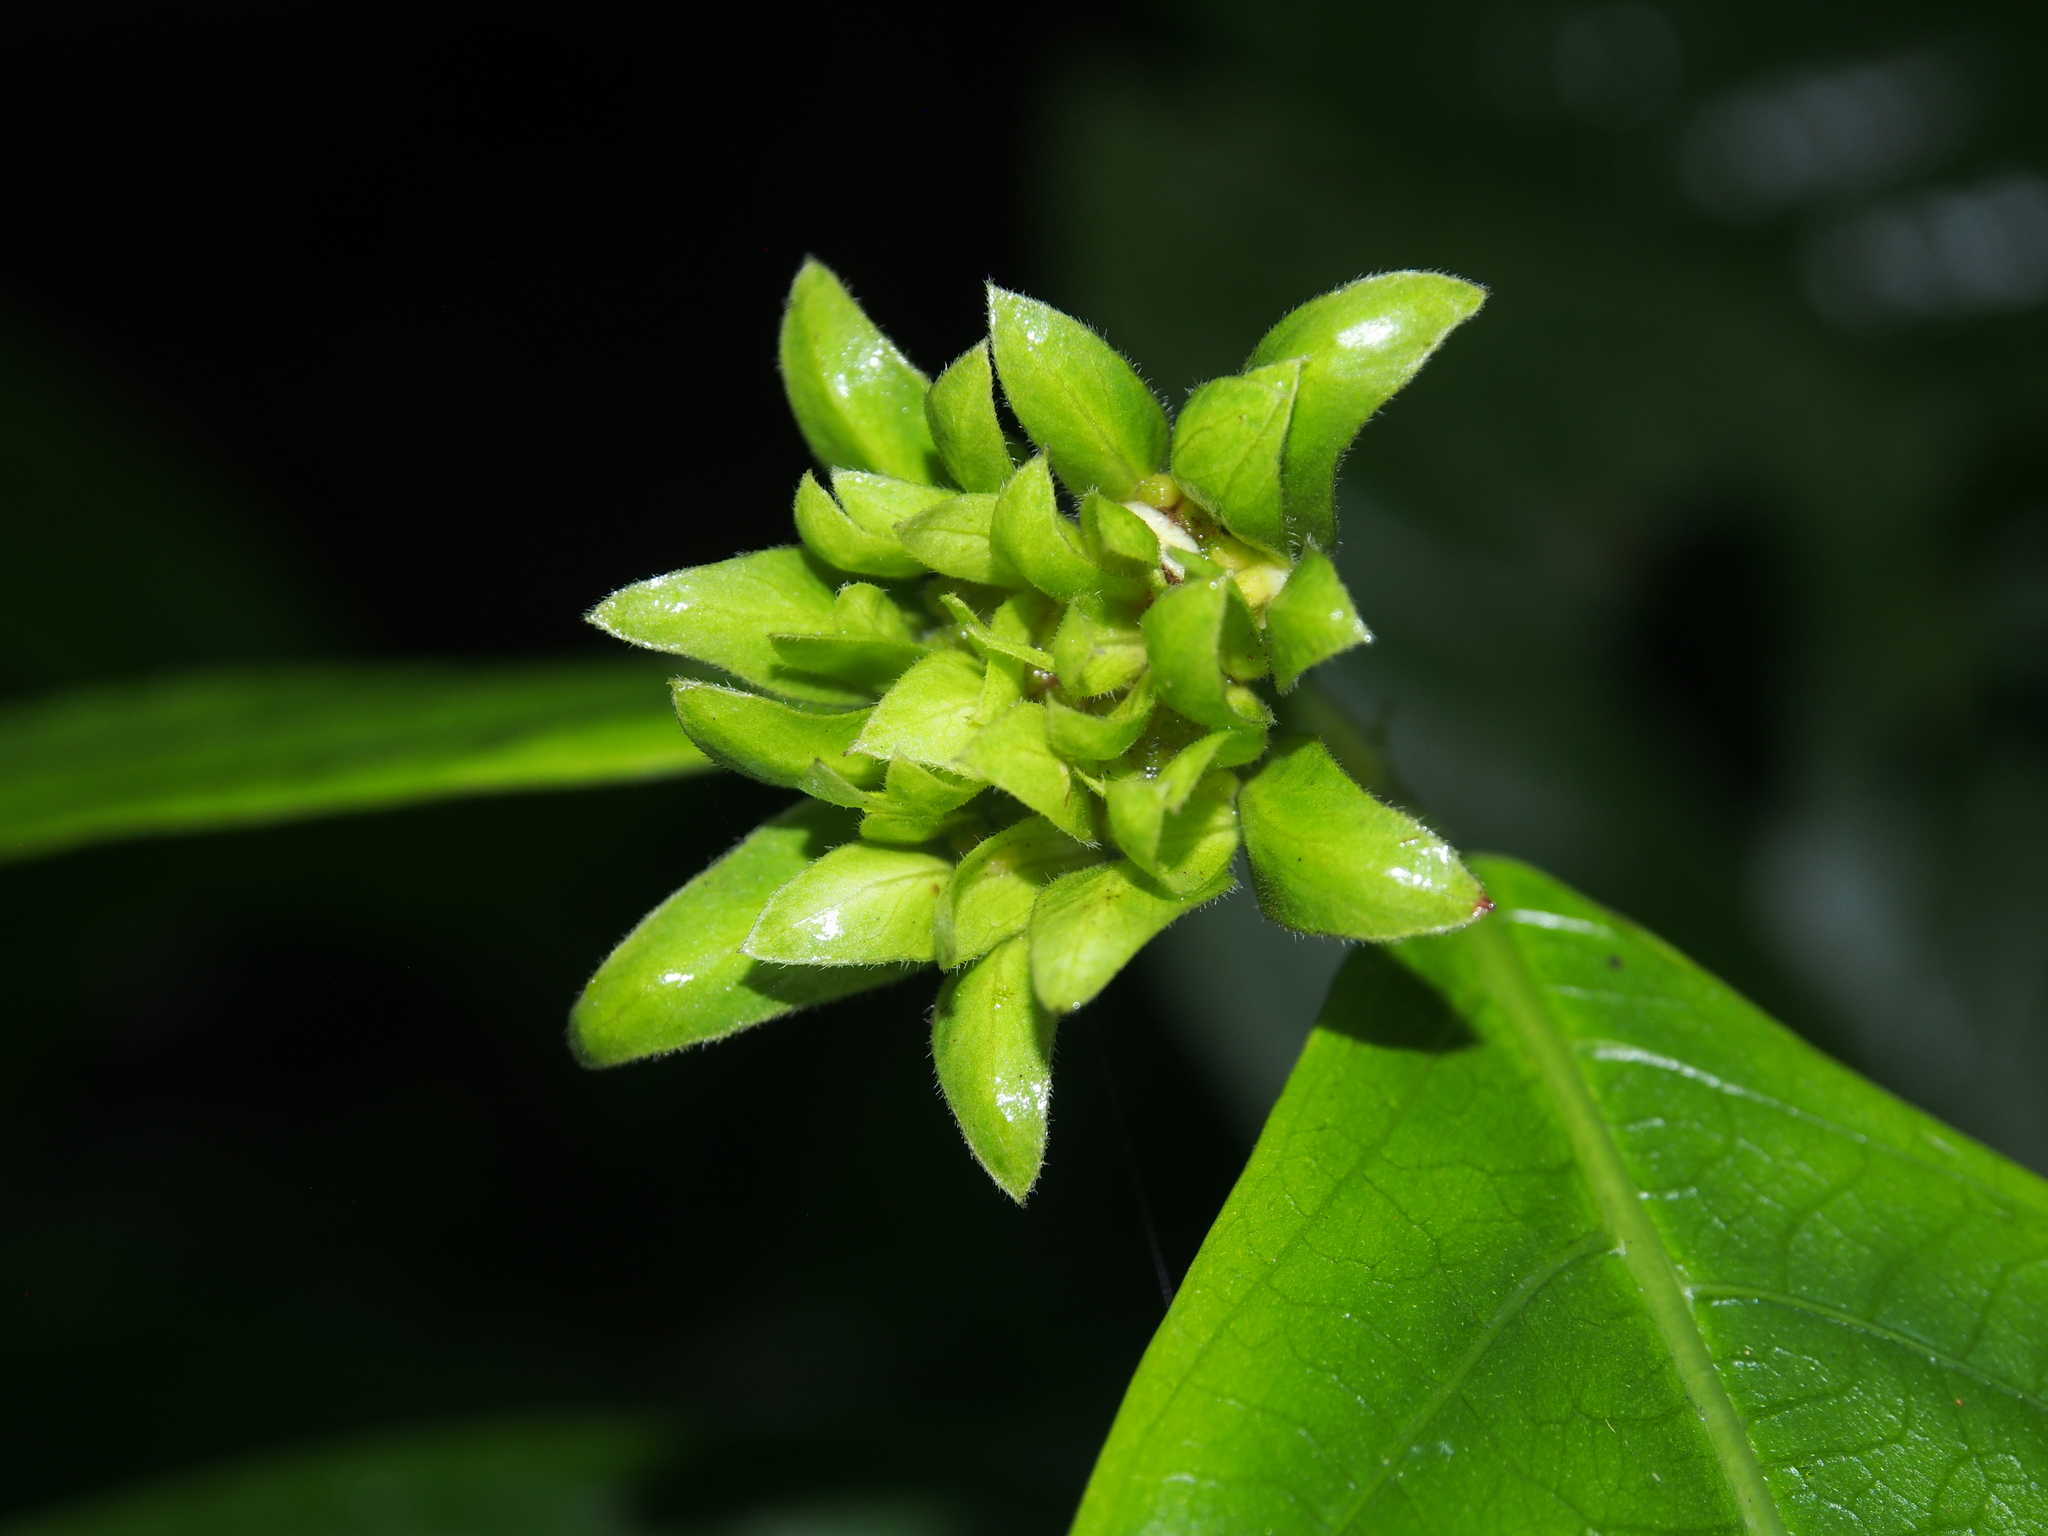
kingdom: Plantae
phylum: Tracheophyta
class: Magnoliopsida
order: Gentianales
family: Rubiaceae
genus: Palicourea
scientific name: Palicourea suerrensis
